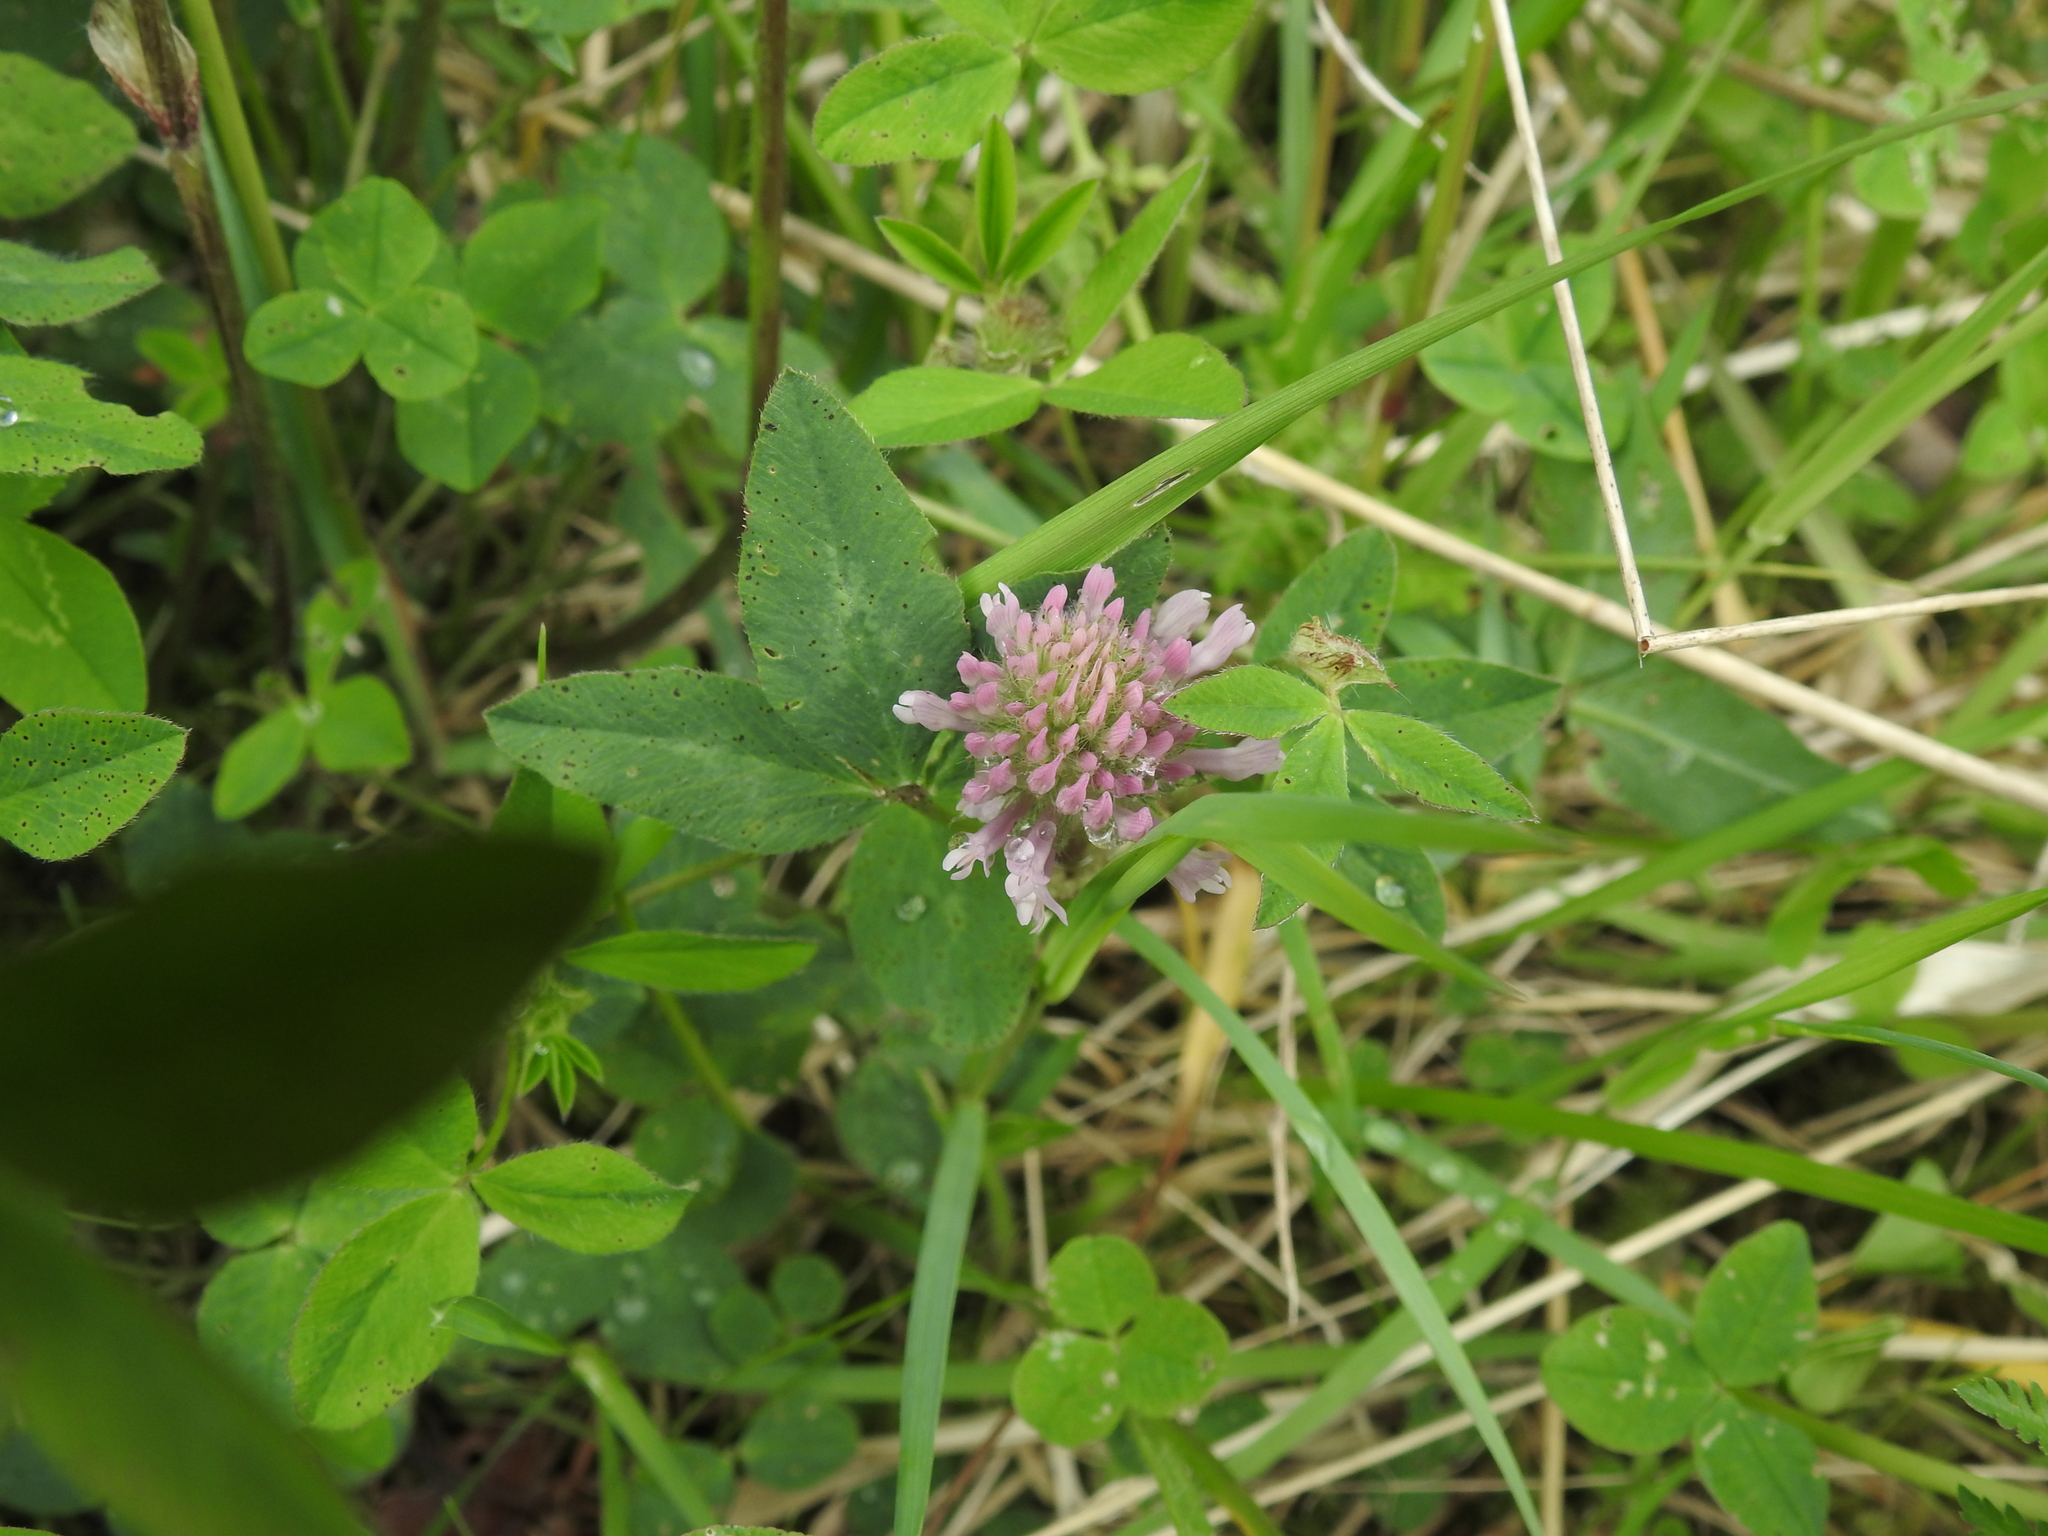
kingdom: Plantae
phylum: Tracheophyta
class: Magnoliopsida
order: Fabales
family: Fabaceae
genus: Trifolium
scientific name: Trifolium pratense
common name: Red clover
